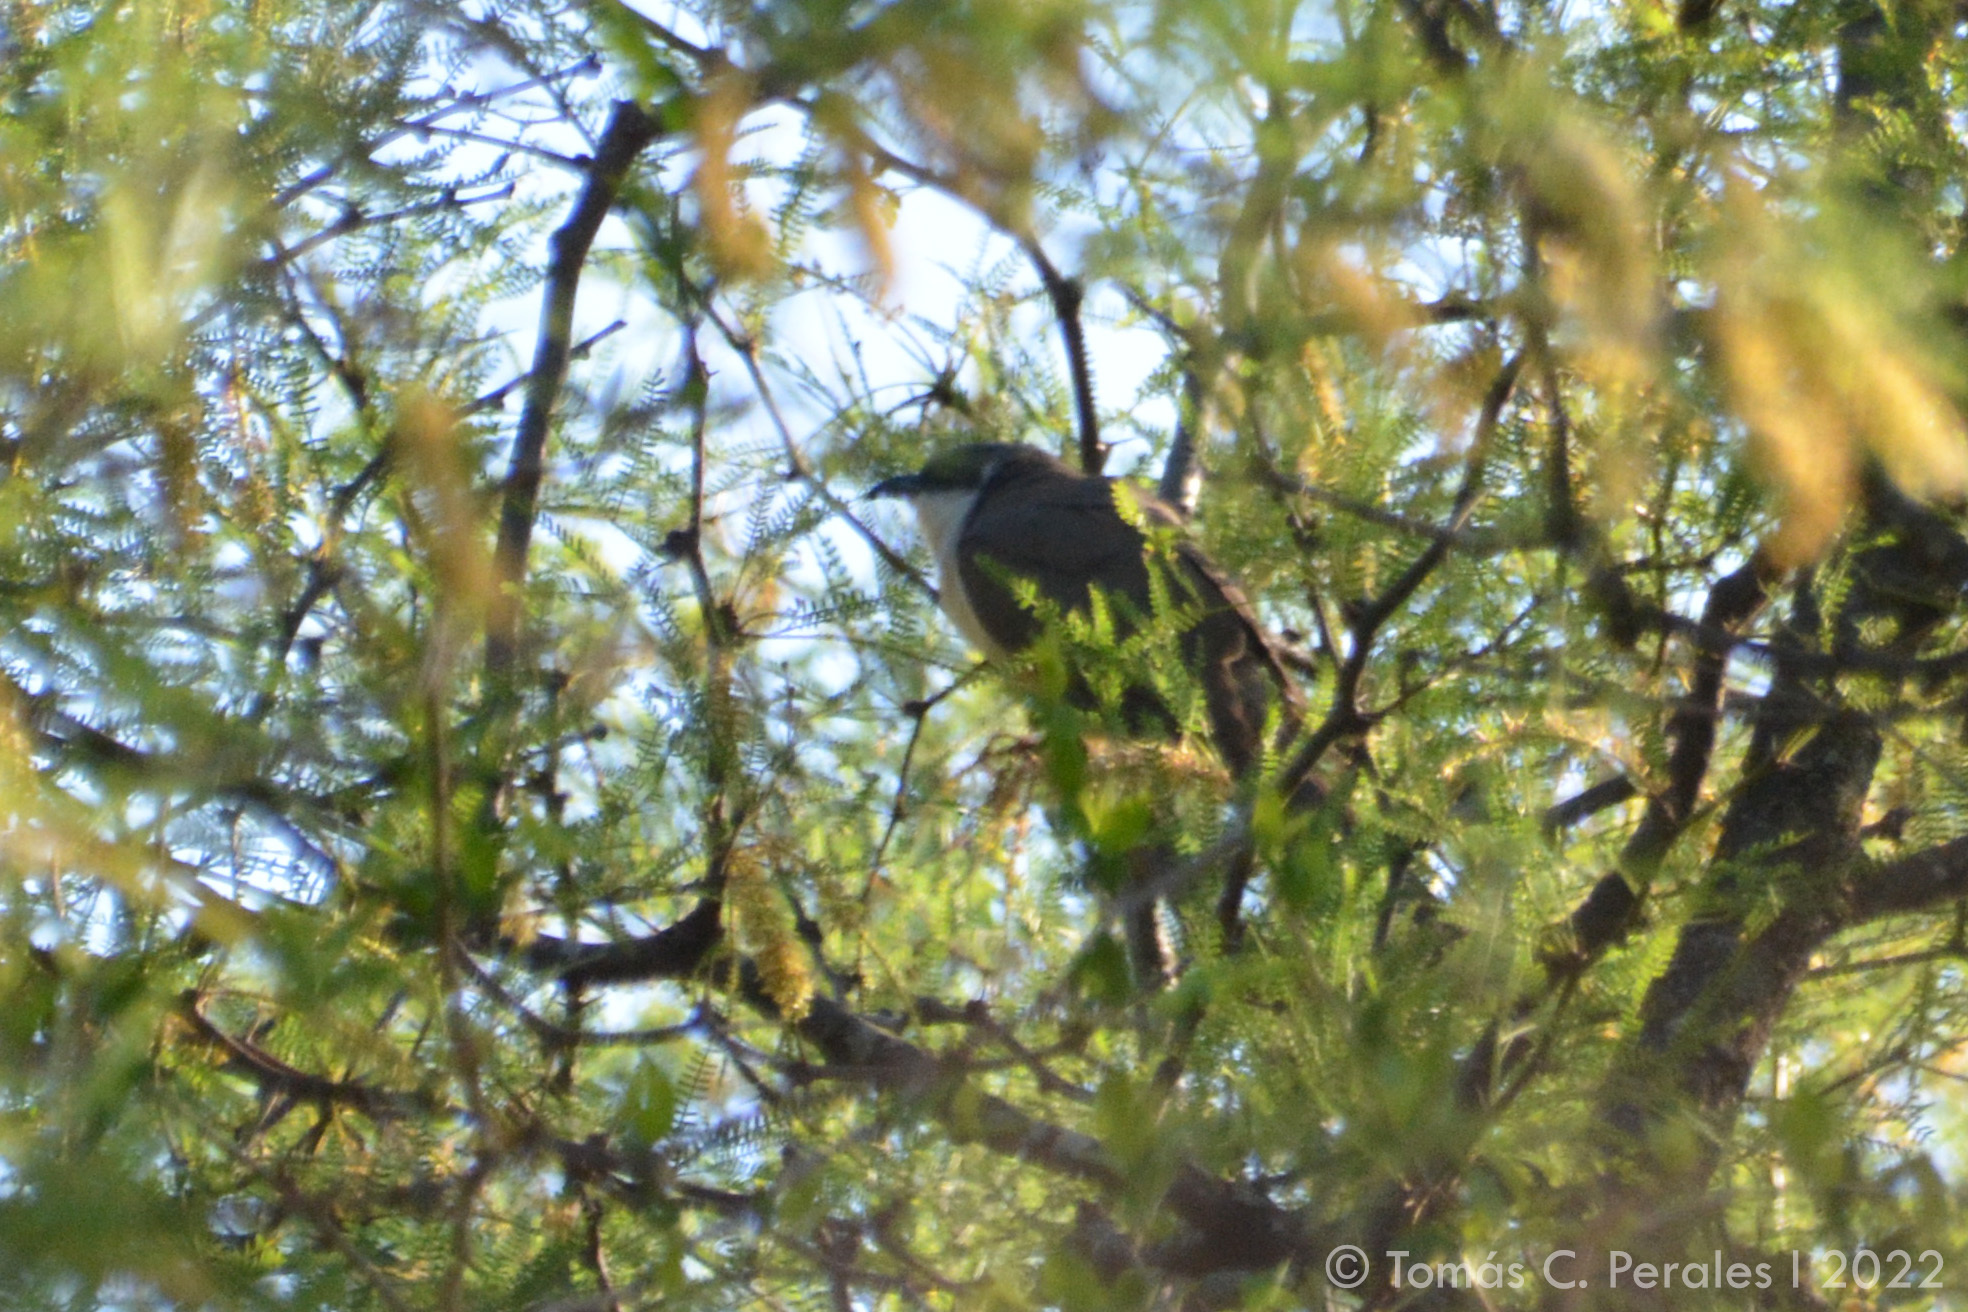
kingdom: Animalia
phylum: Chordata
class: Aves
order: Cuculiformes
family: Cuculidae
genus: Coccyzus
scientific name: Coccyzus melacoryphus
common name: Dark-billed cuckoo
